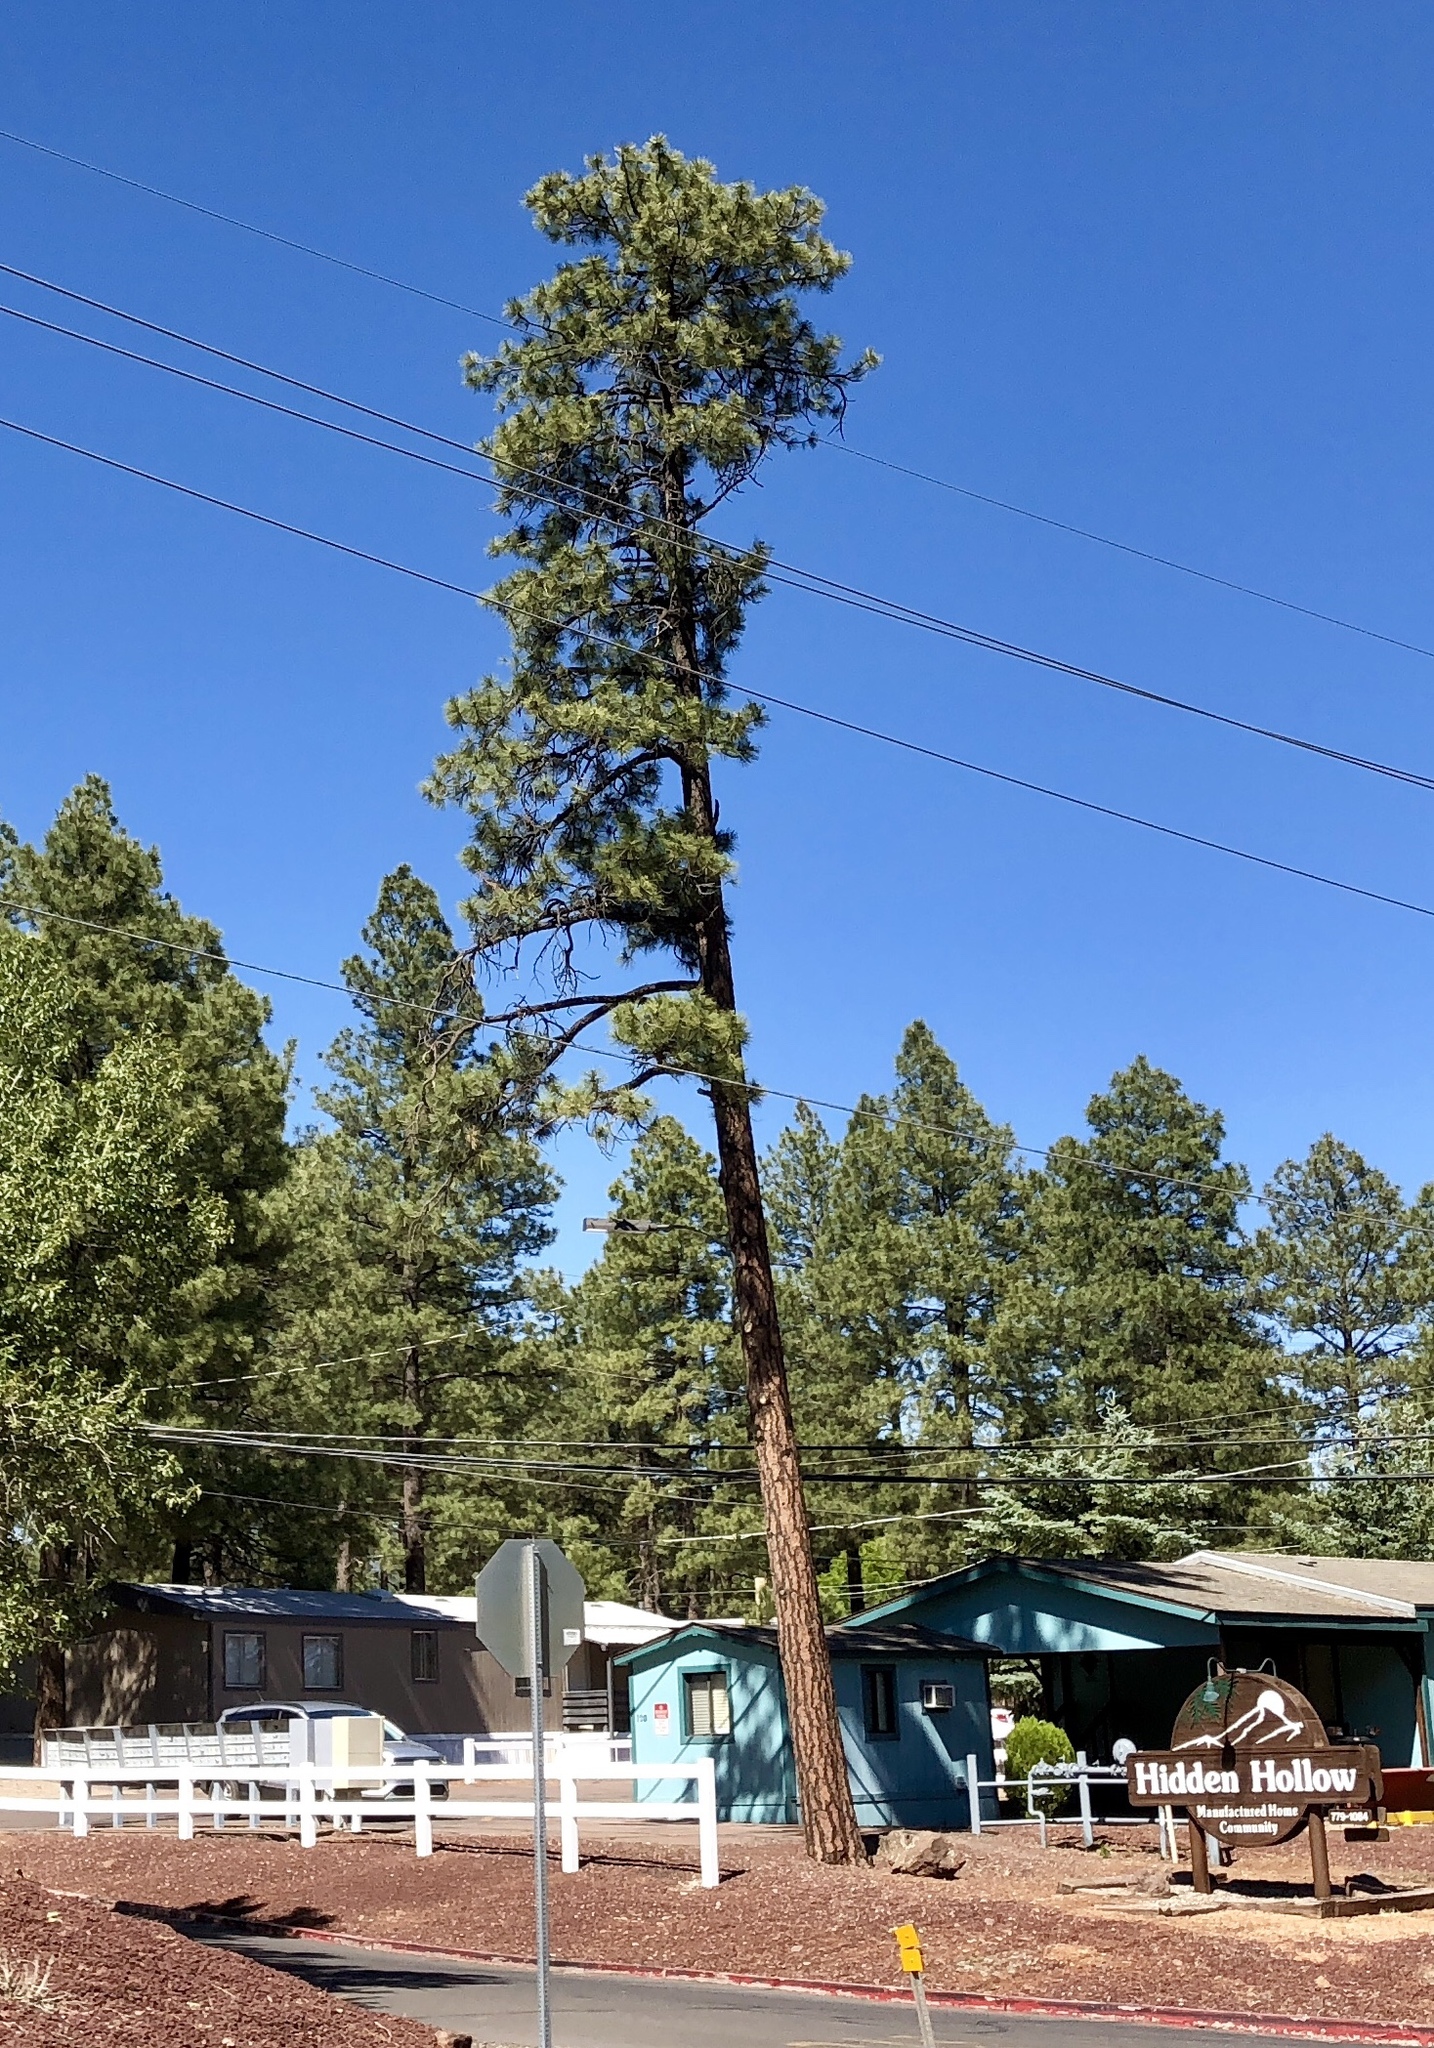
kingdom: Plantae
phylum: Tracheophyta
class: Pinopsida
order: Pinales
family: Pinaceae
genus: Pinus
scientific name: Pinus ponderosa
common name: Western yellow-pine
